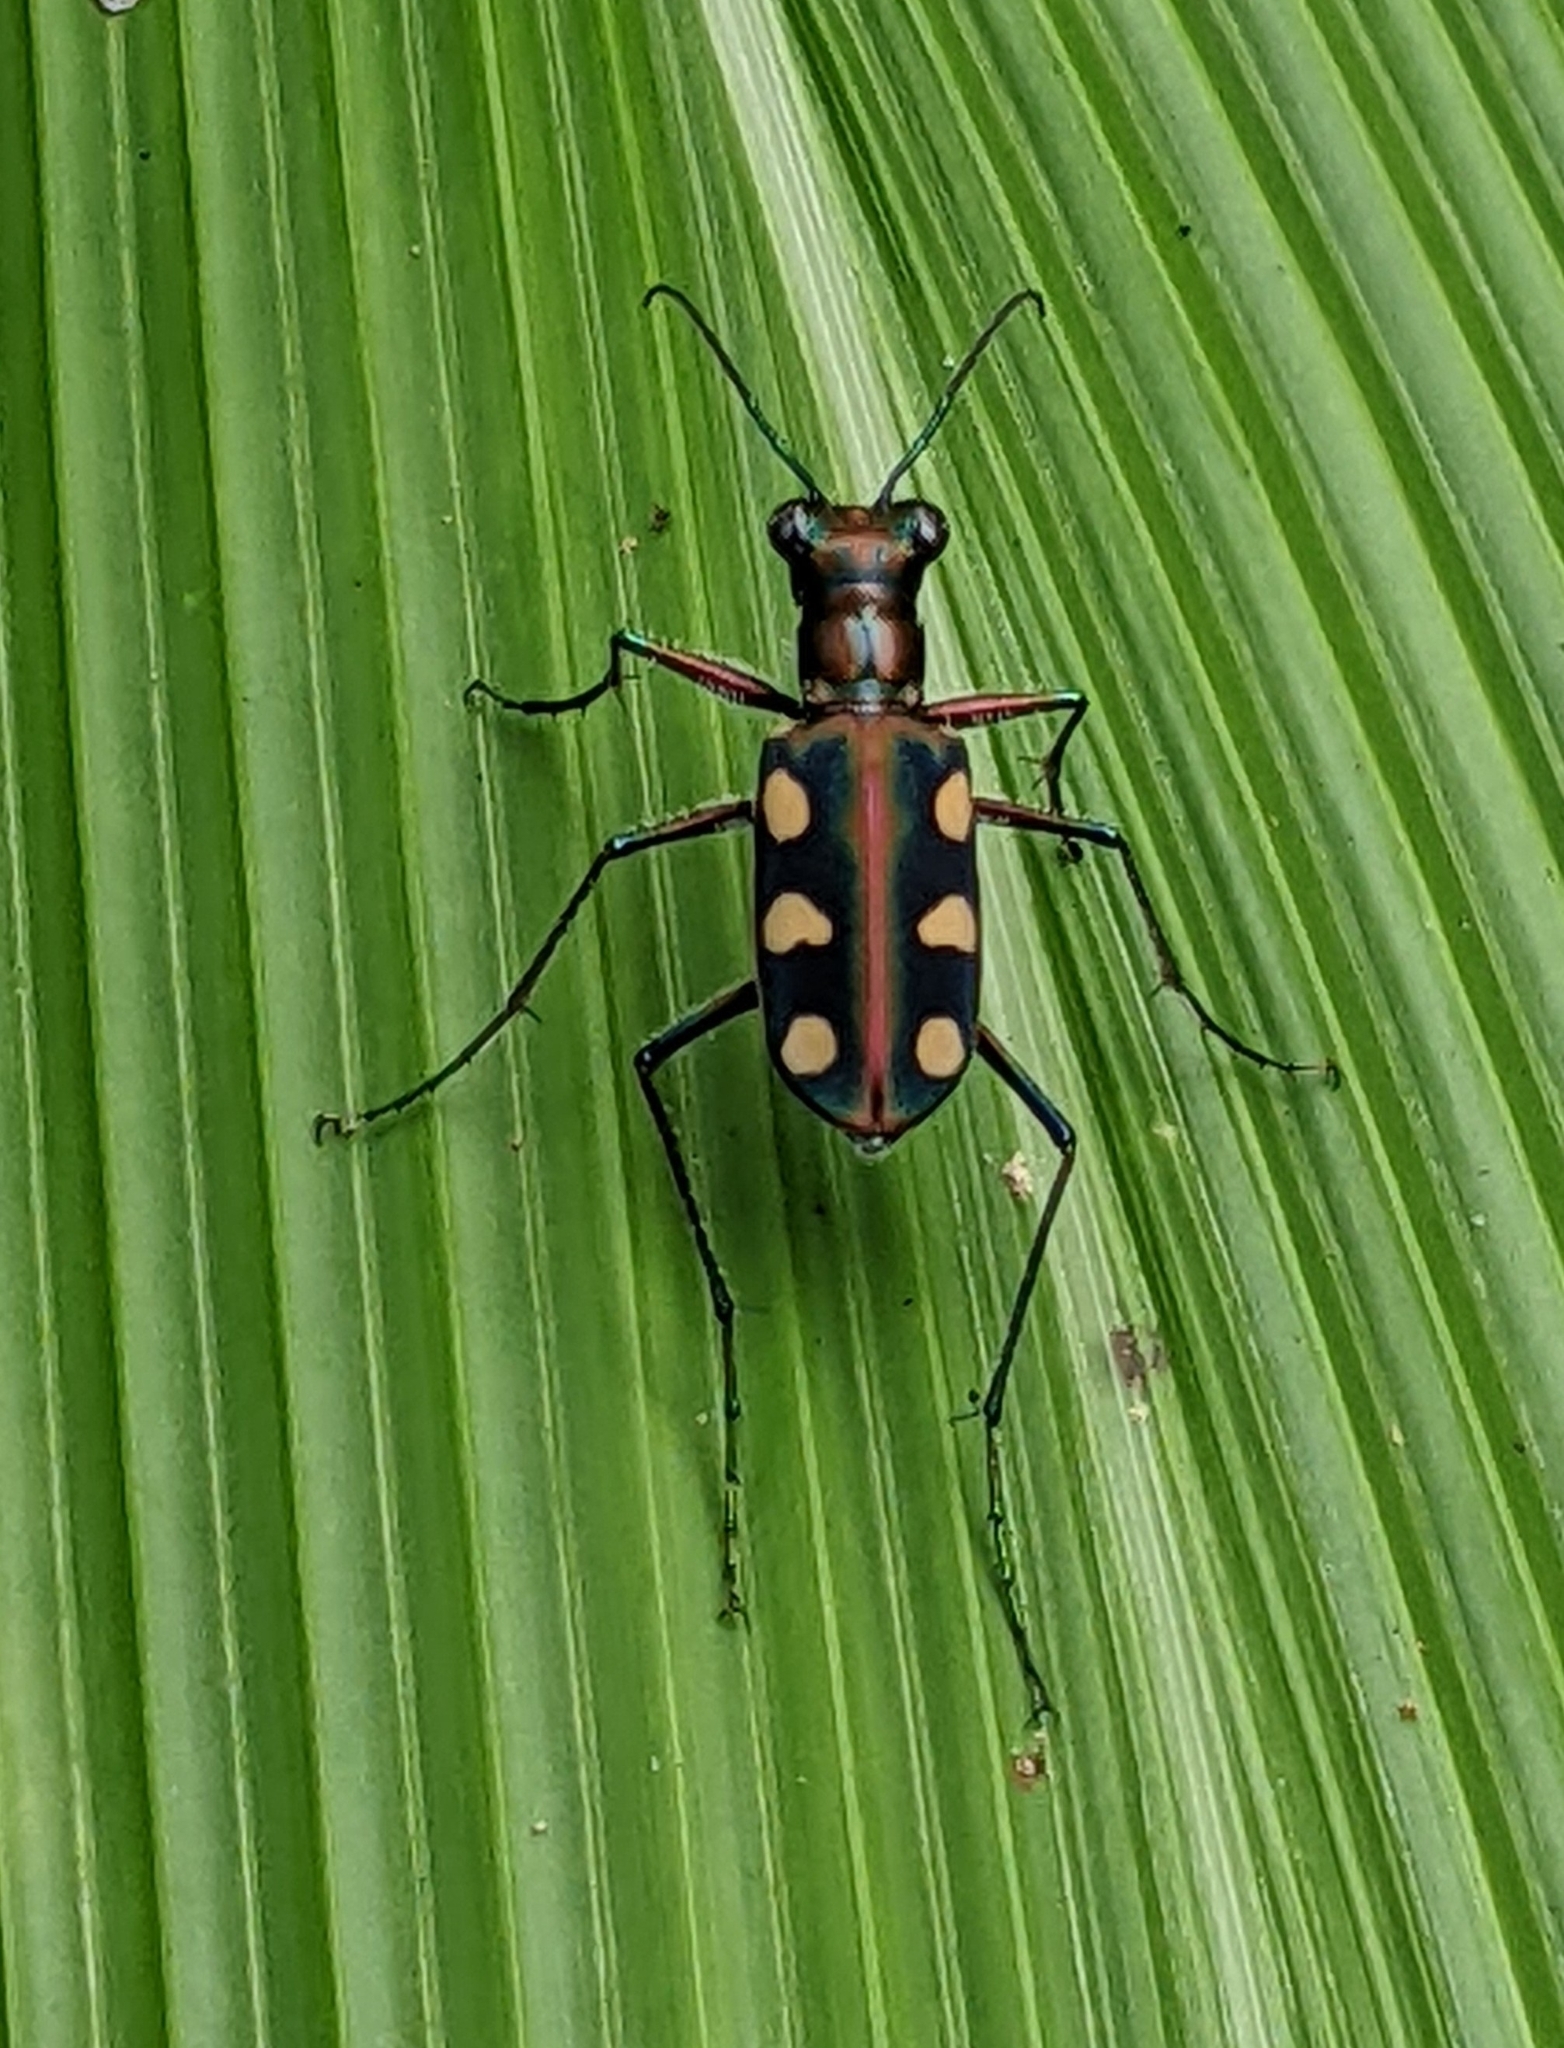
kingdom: Animalia
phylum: Arthropoda
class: Insecta
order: Coleoptera
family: Carabidae
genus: Cicindela
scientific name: Cicindela aurulenta
